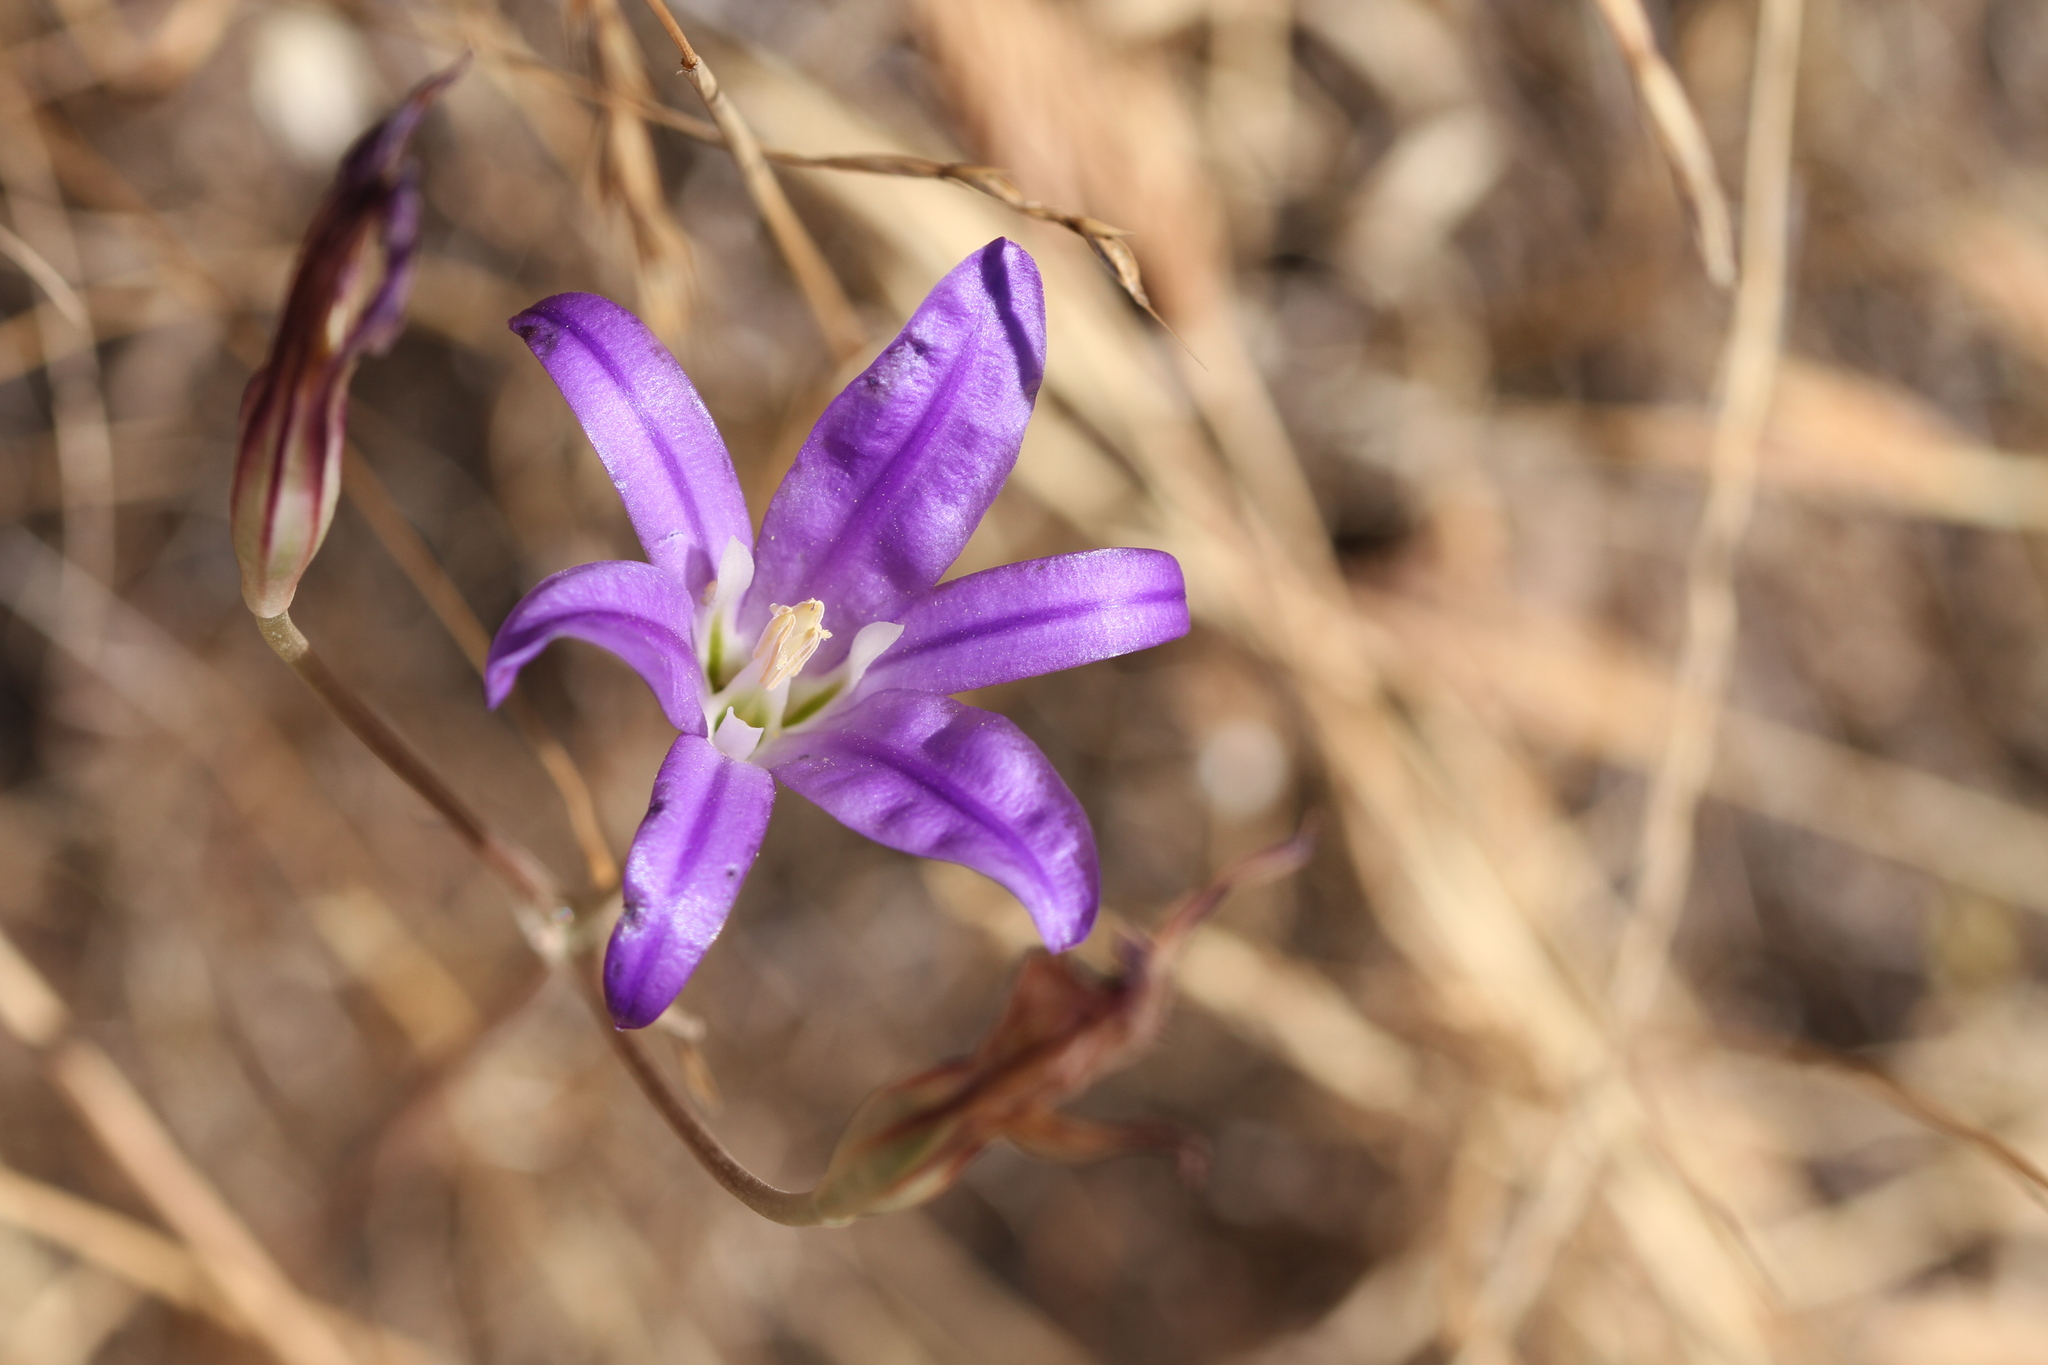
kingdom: Plantae
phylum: Tracheophyta
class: Liliopsida
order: Asparagales
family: Asparagaceae
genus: Brodiaea
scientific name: Brodiaea elegans
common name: Elegant cluster-lily
